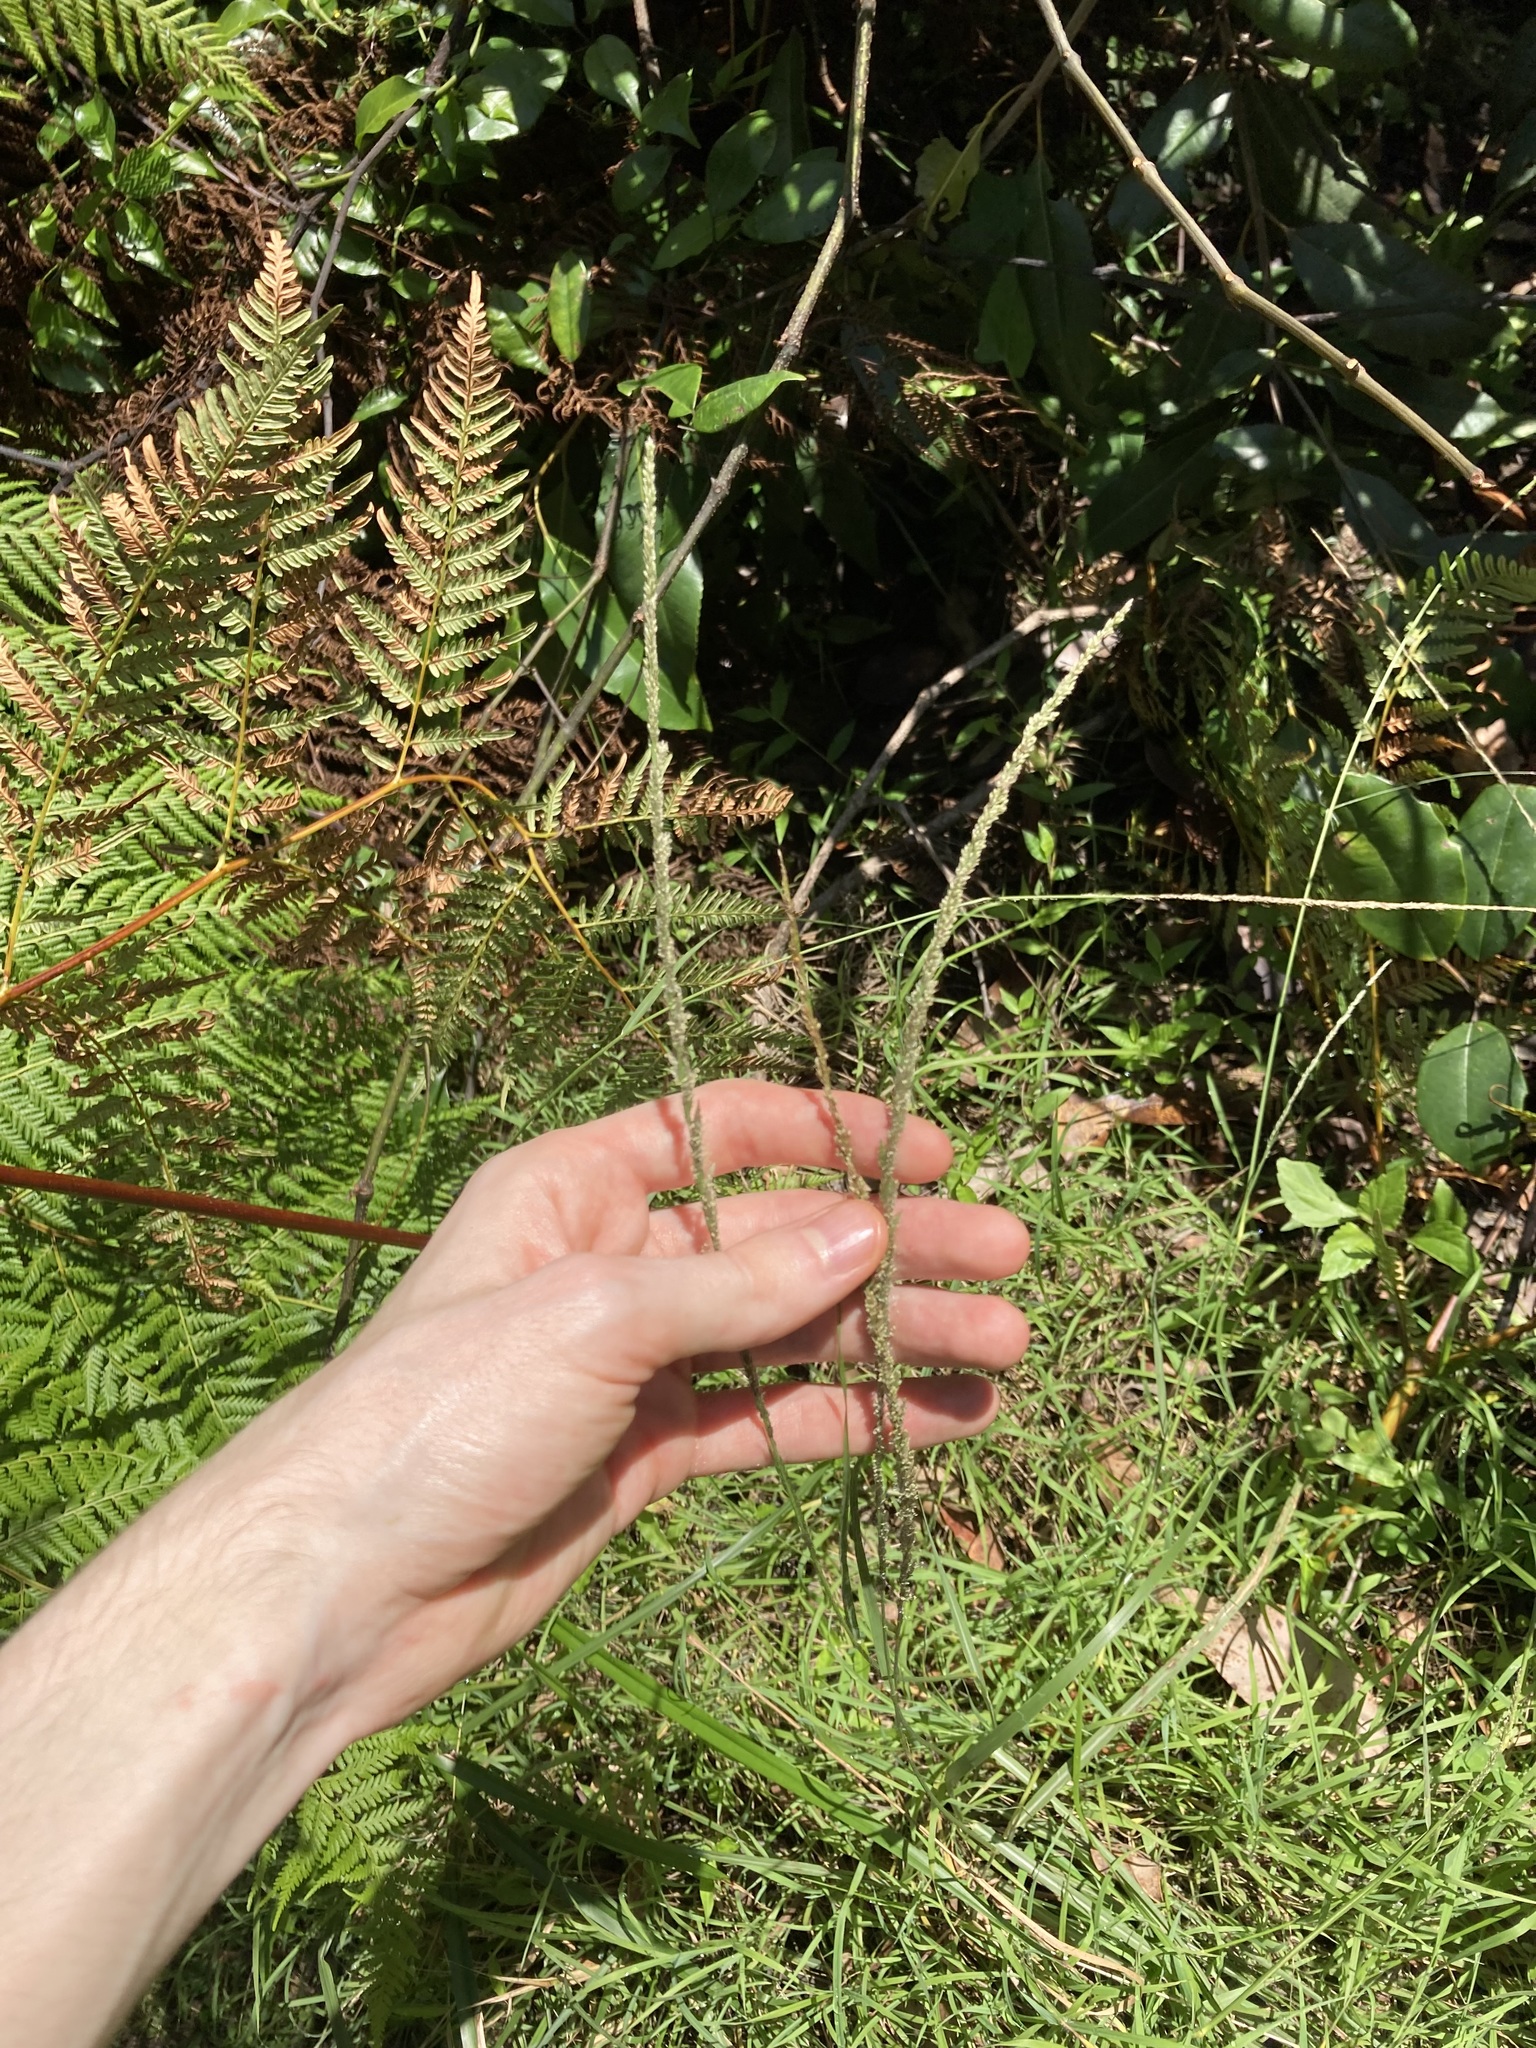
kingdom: Plantae
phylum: Tracheophyta
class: Liliopsida
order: Poales
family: Poaceae
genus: Sporobolus
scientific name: Sporobolus africanus
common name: African dropseed
